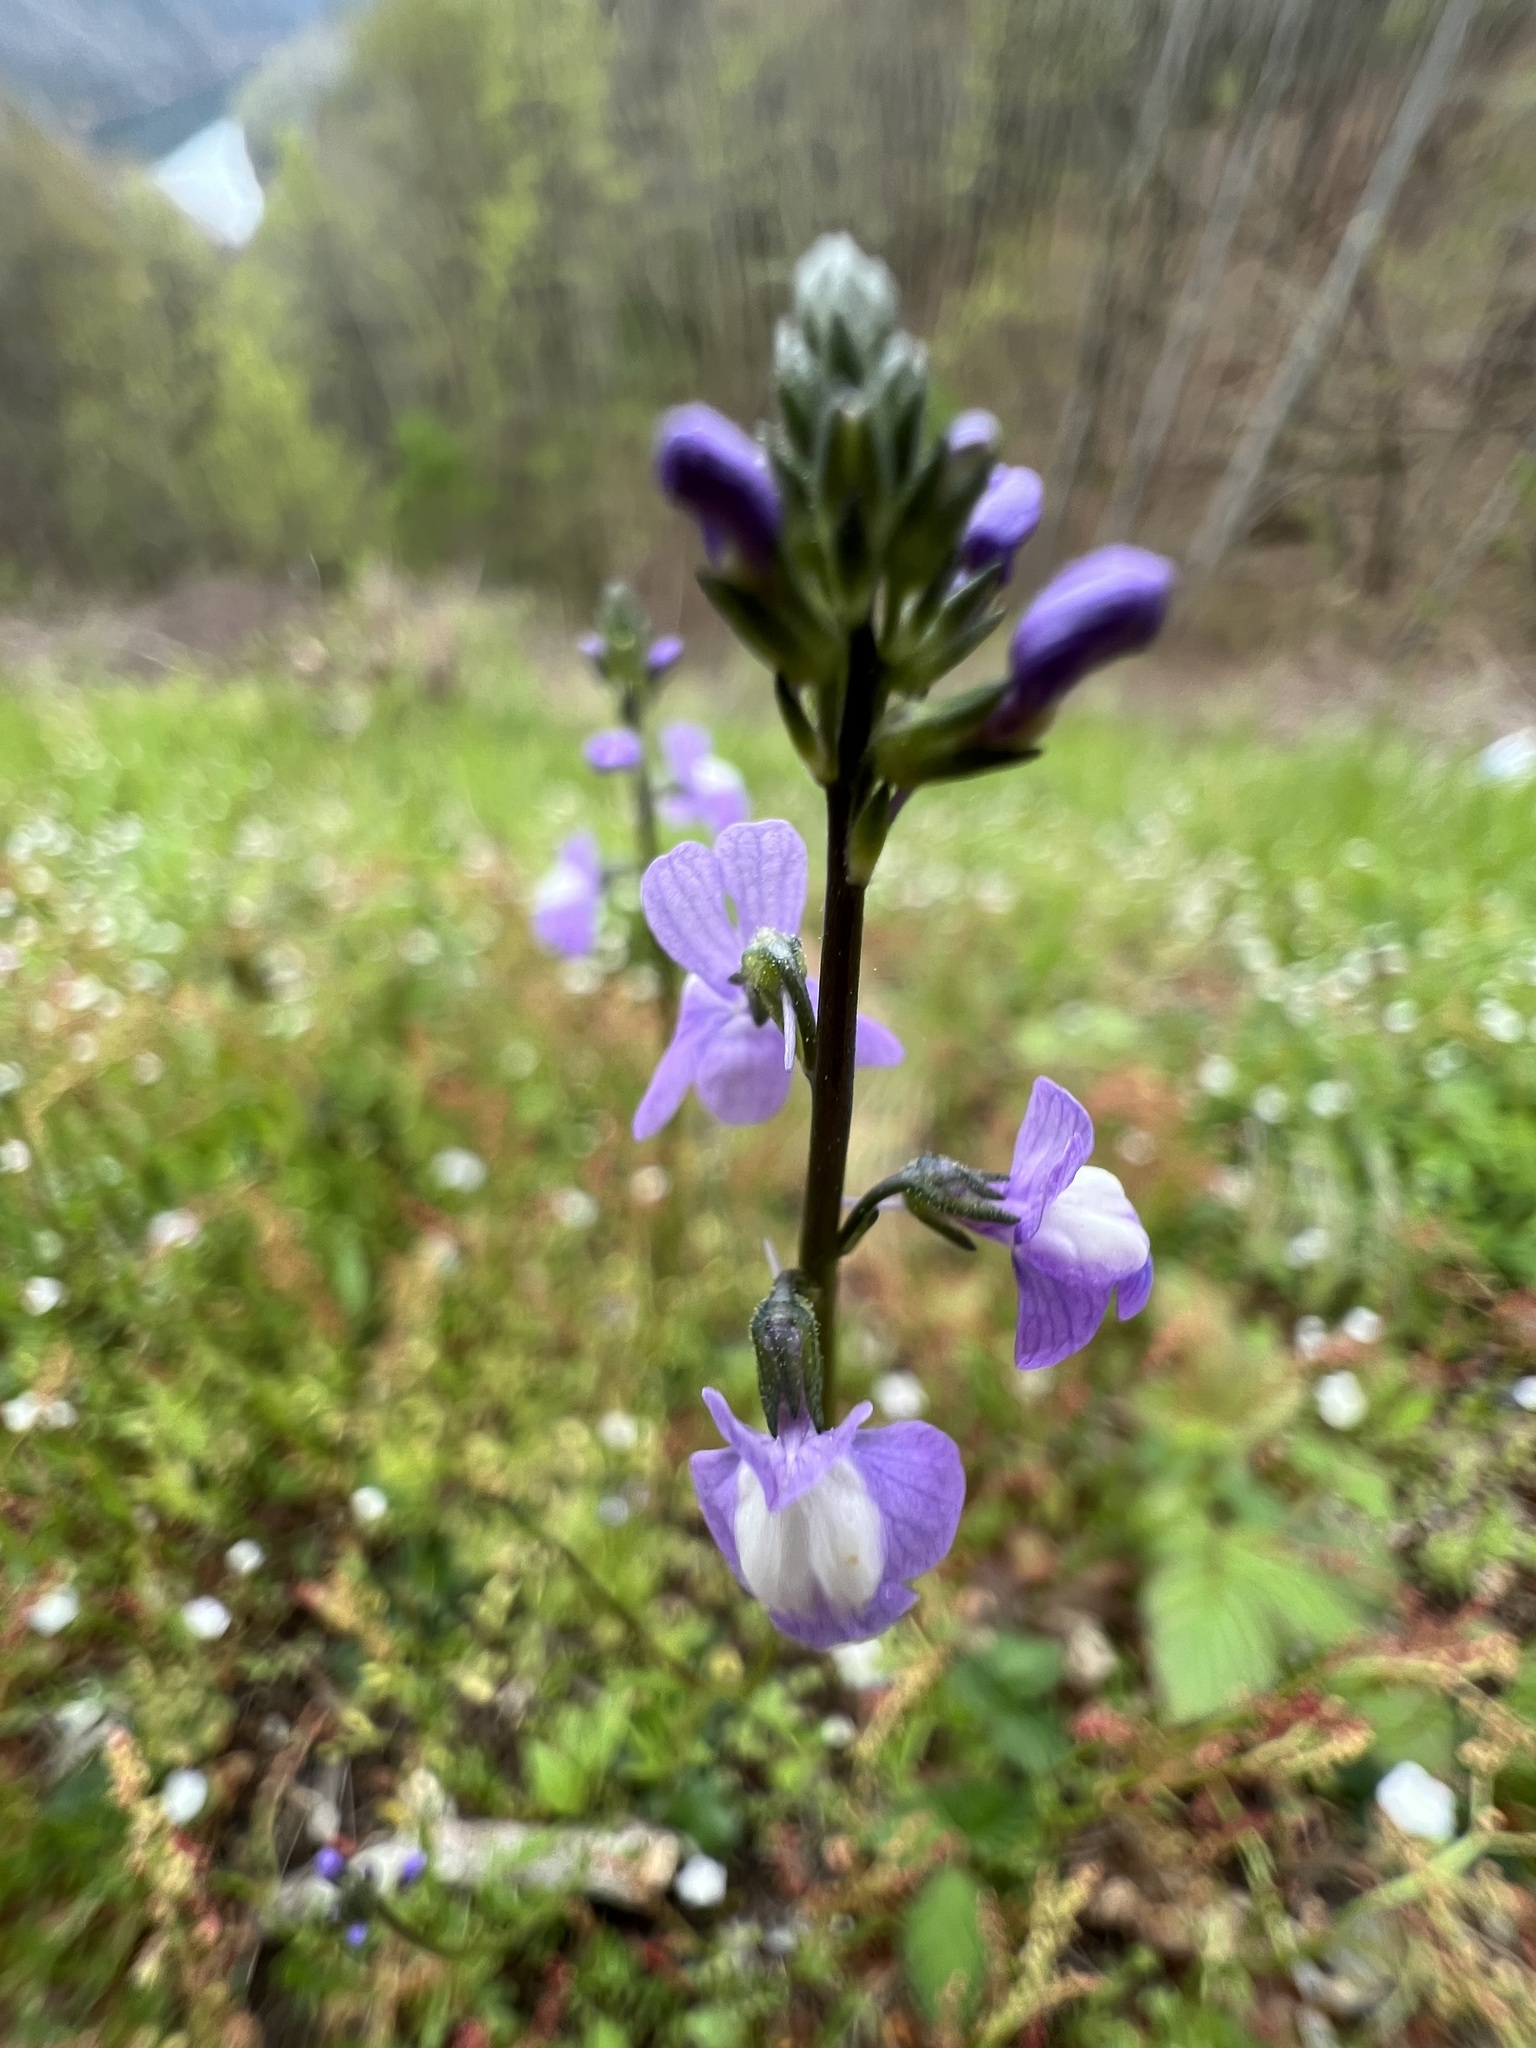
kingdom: Plantae
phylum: Tracheophyta
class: Magnoliopsida
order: Lamiales
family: Plantaginaceae
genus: Nuttallanthus
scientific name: Nuttallanthus canadensis
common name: Blue toadflax
